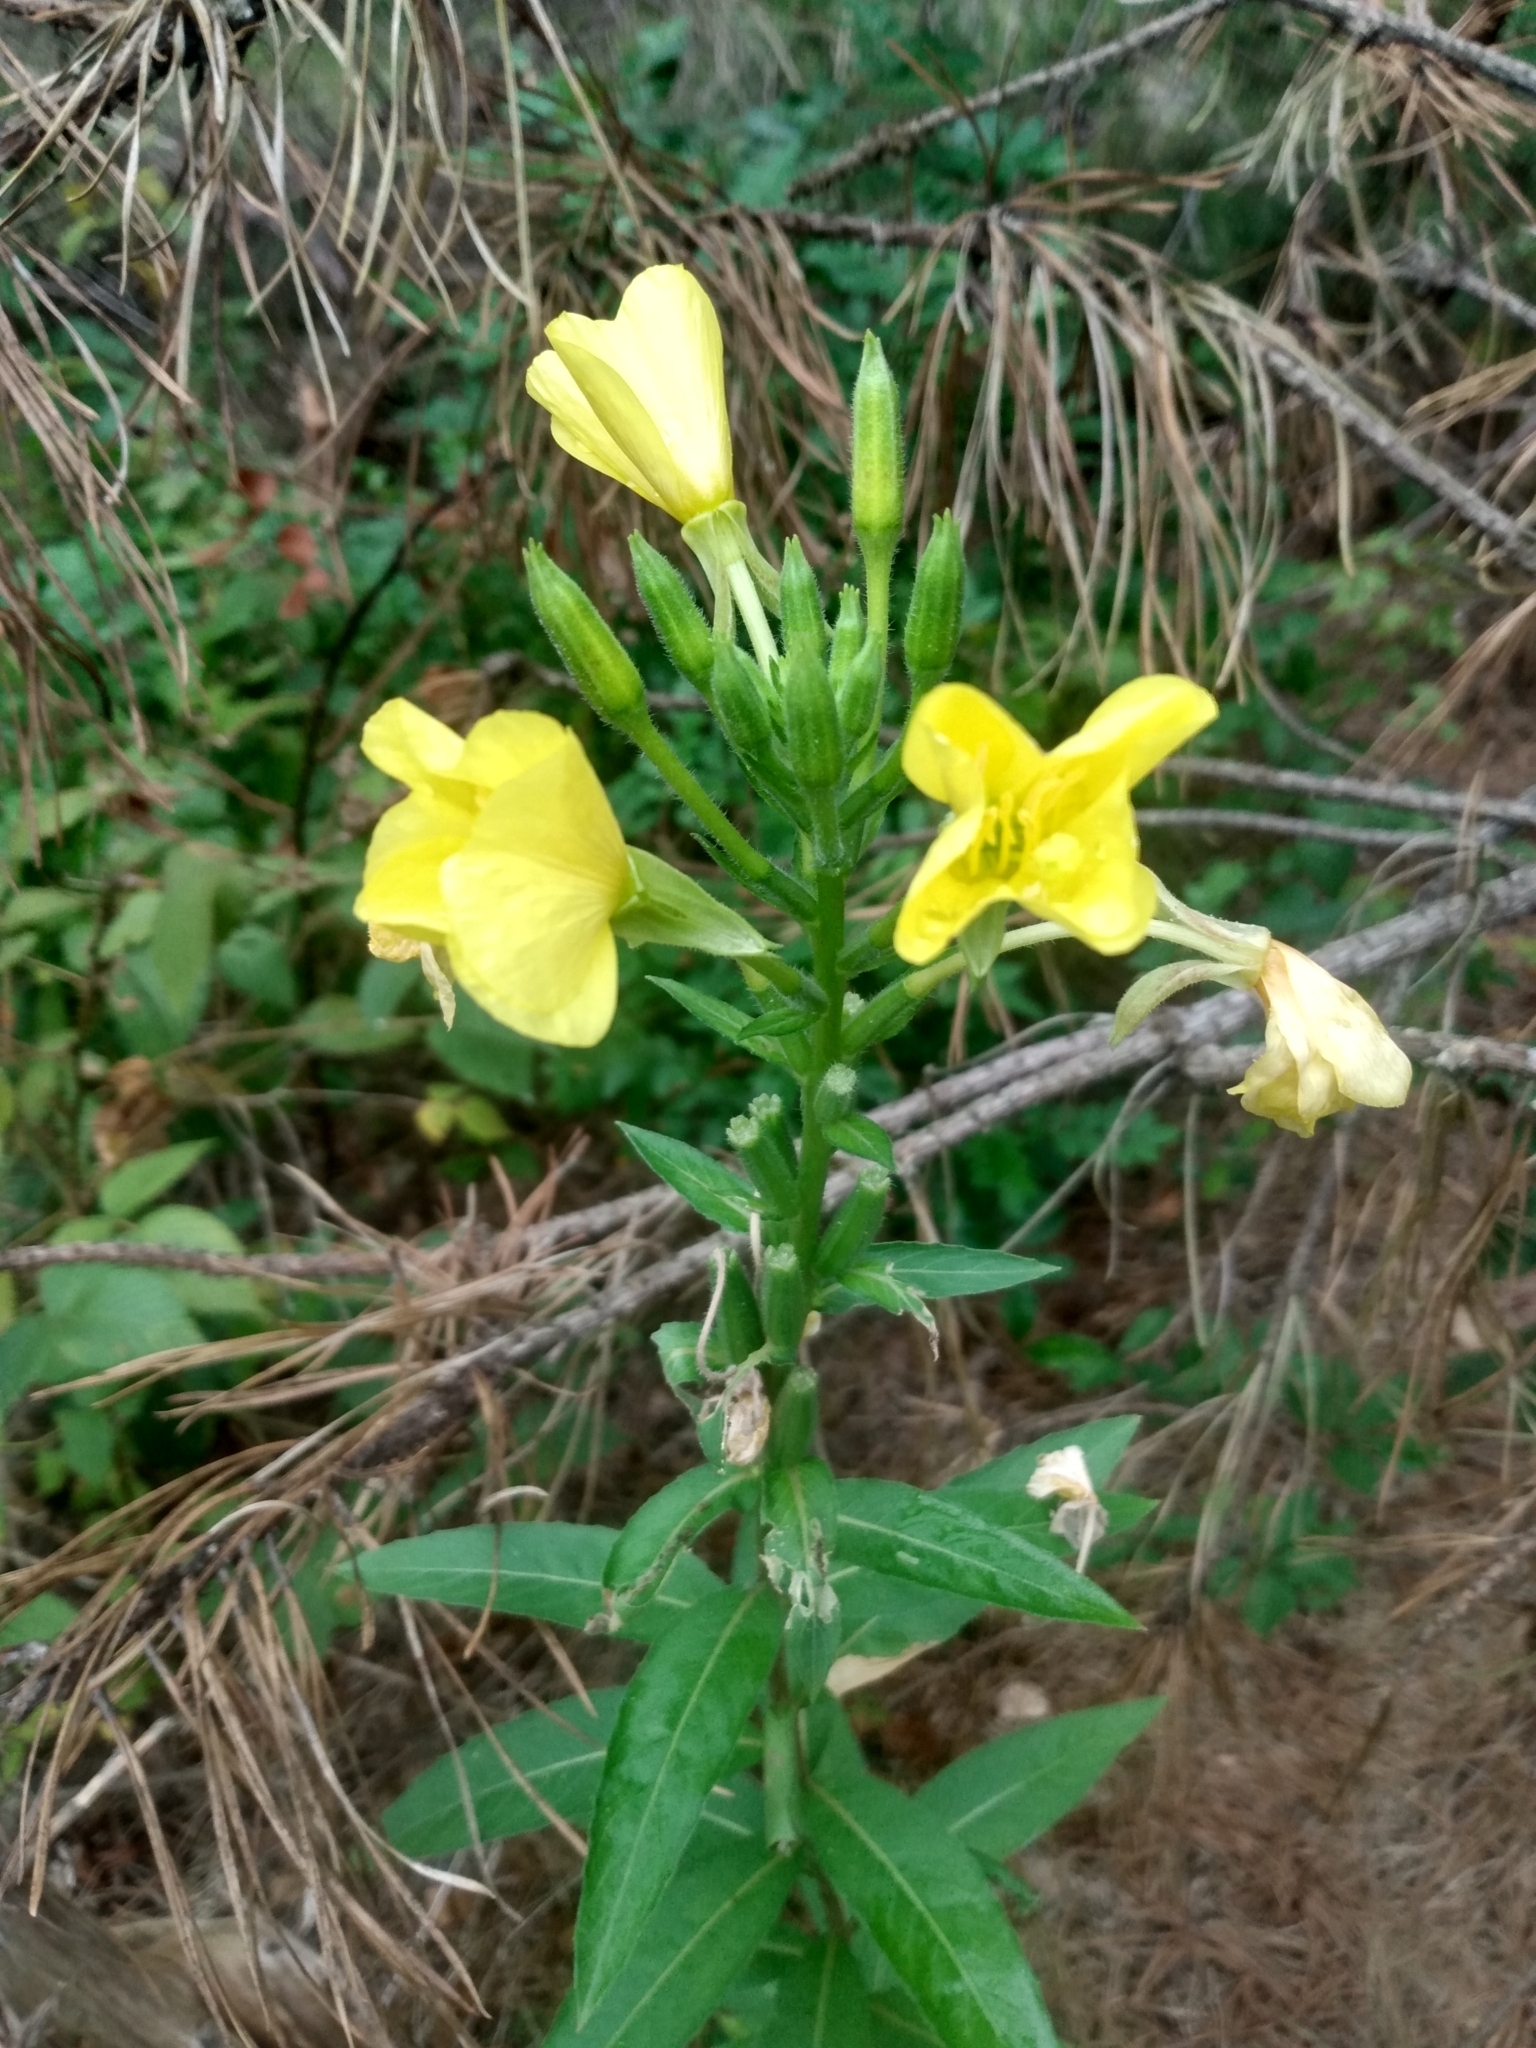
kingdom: Plantae
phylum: Tracheophyta
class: Magnoliopsida
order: Myrtales
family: Onagraceae
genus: Oenothera
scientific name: Oenothera biennis
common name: Common evening-primrose
